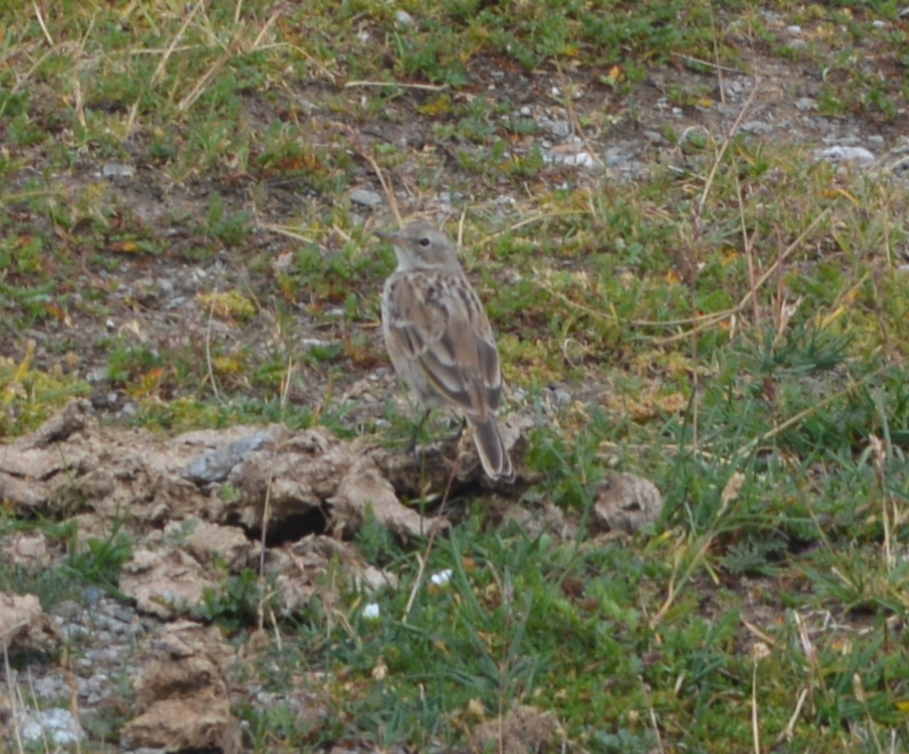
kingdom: Animalia
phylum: Chordata
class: Aves
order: Passeriformes
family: Motacillidae
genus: Anthus
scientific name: Anthus spinoletta
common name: Water pipit
